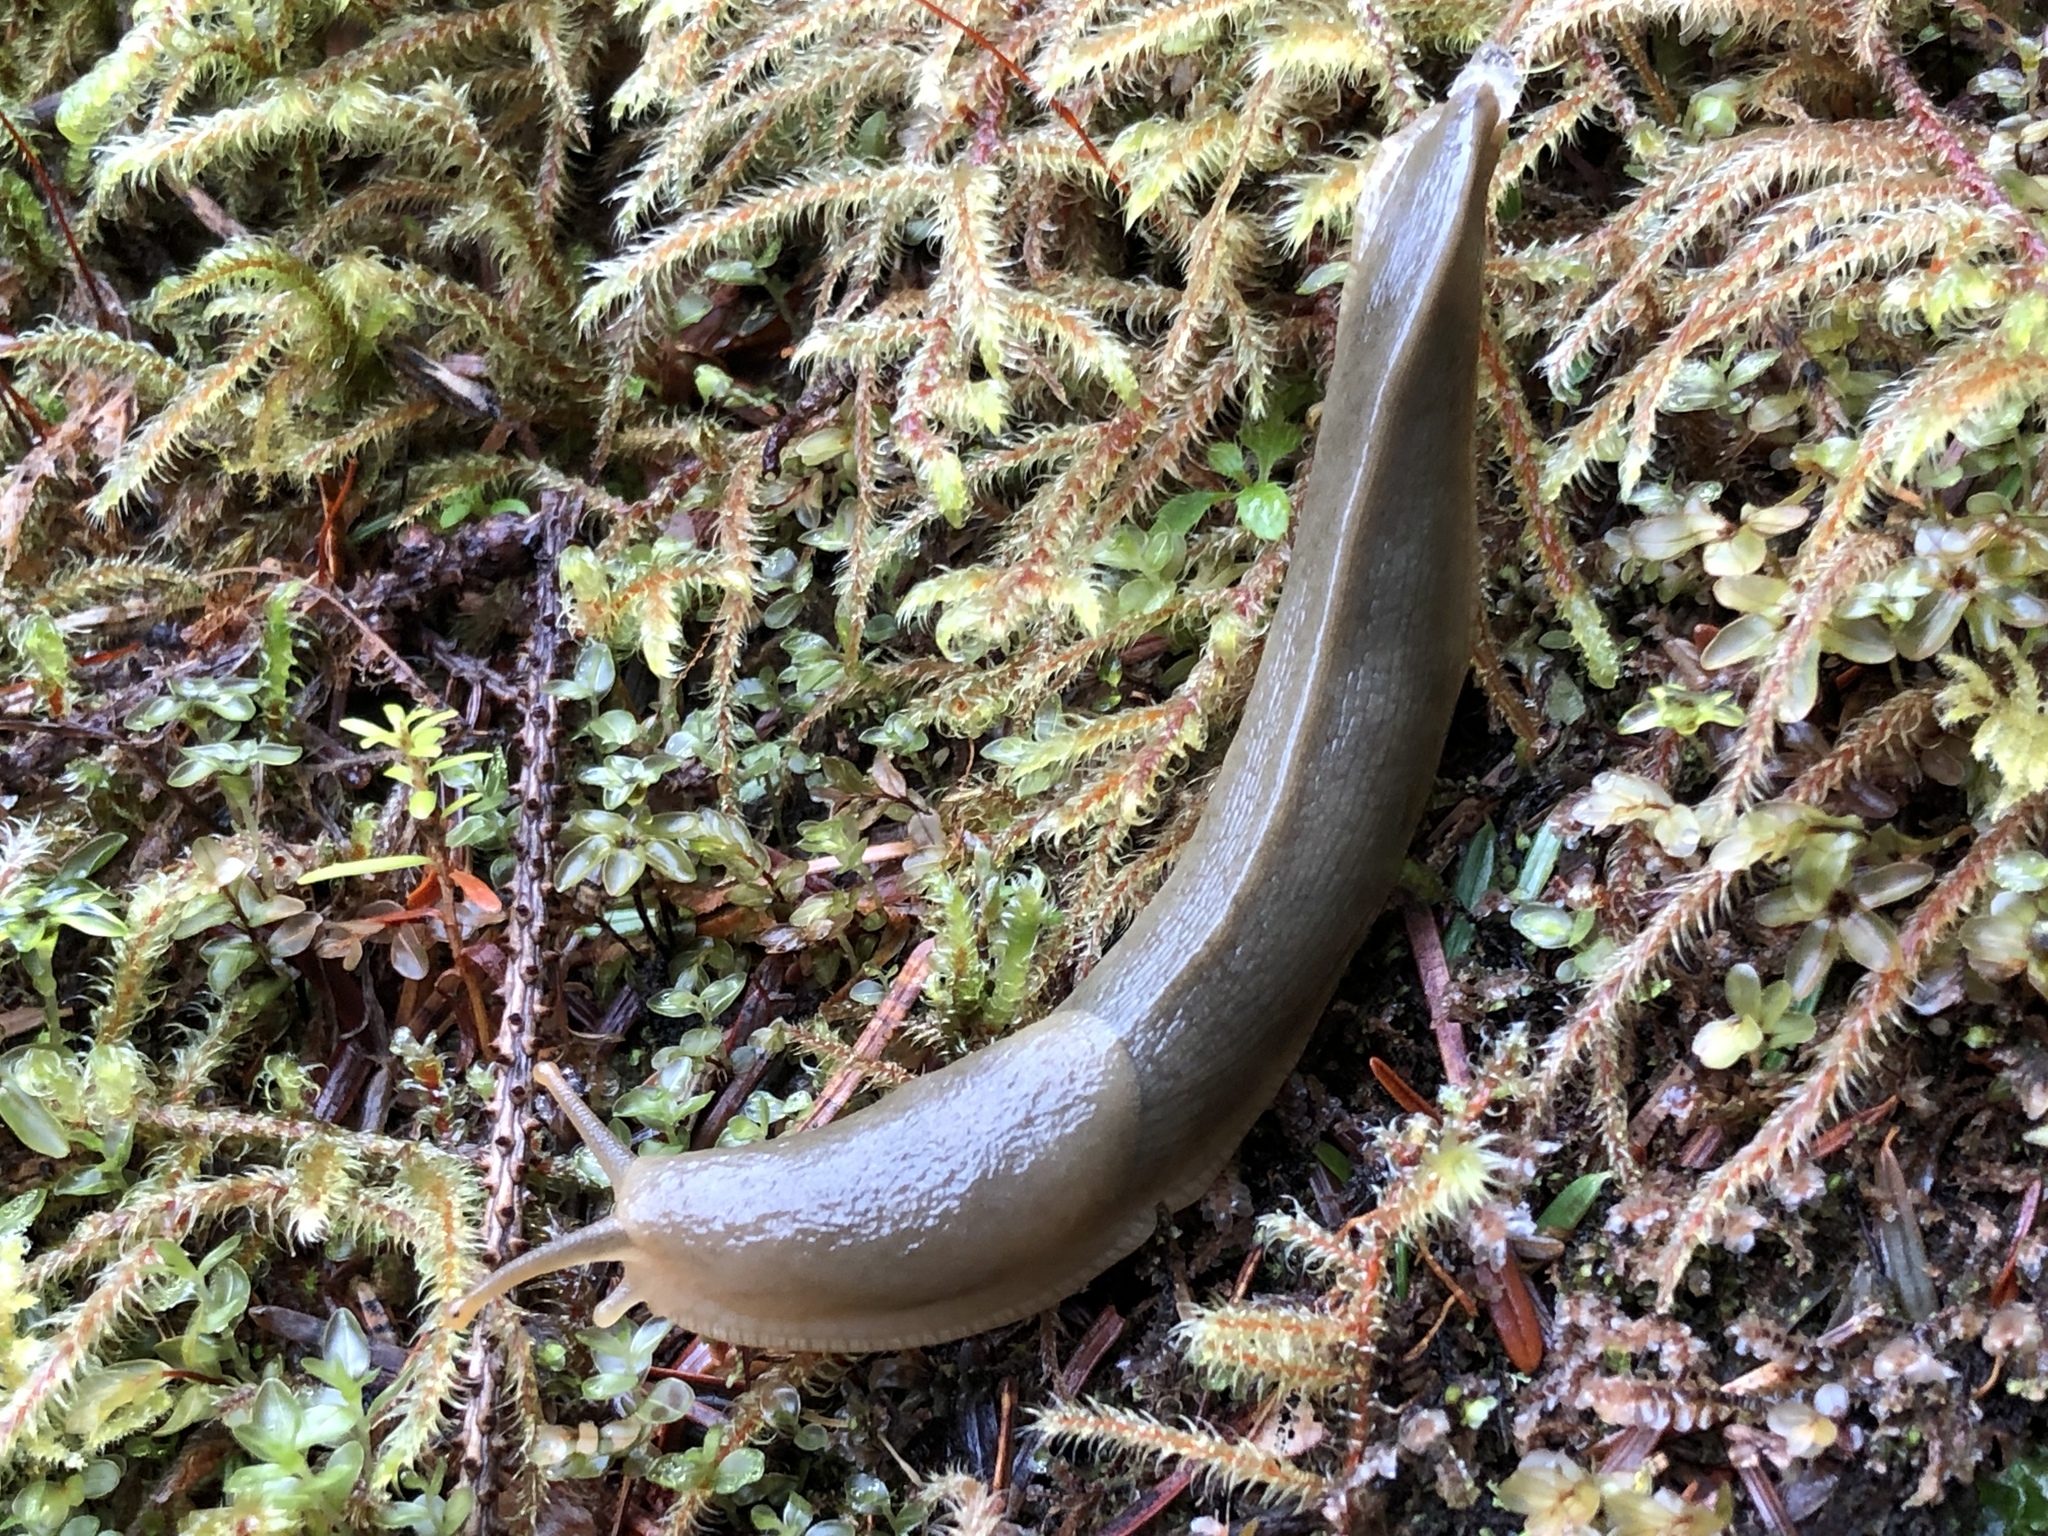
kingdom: Animalia
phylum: Mollusca
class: Gastropoda
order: Stylommatophora
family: Ariolimacidae
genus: Ariolimax
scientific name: Ariolimax columbianus
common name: Pacific banana slug
